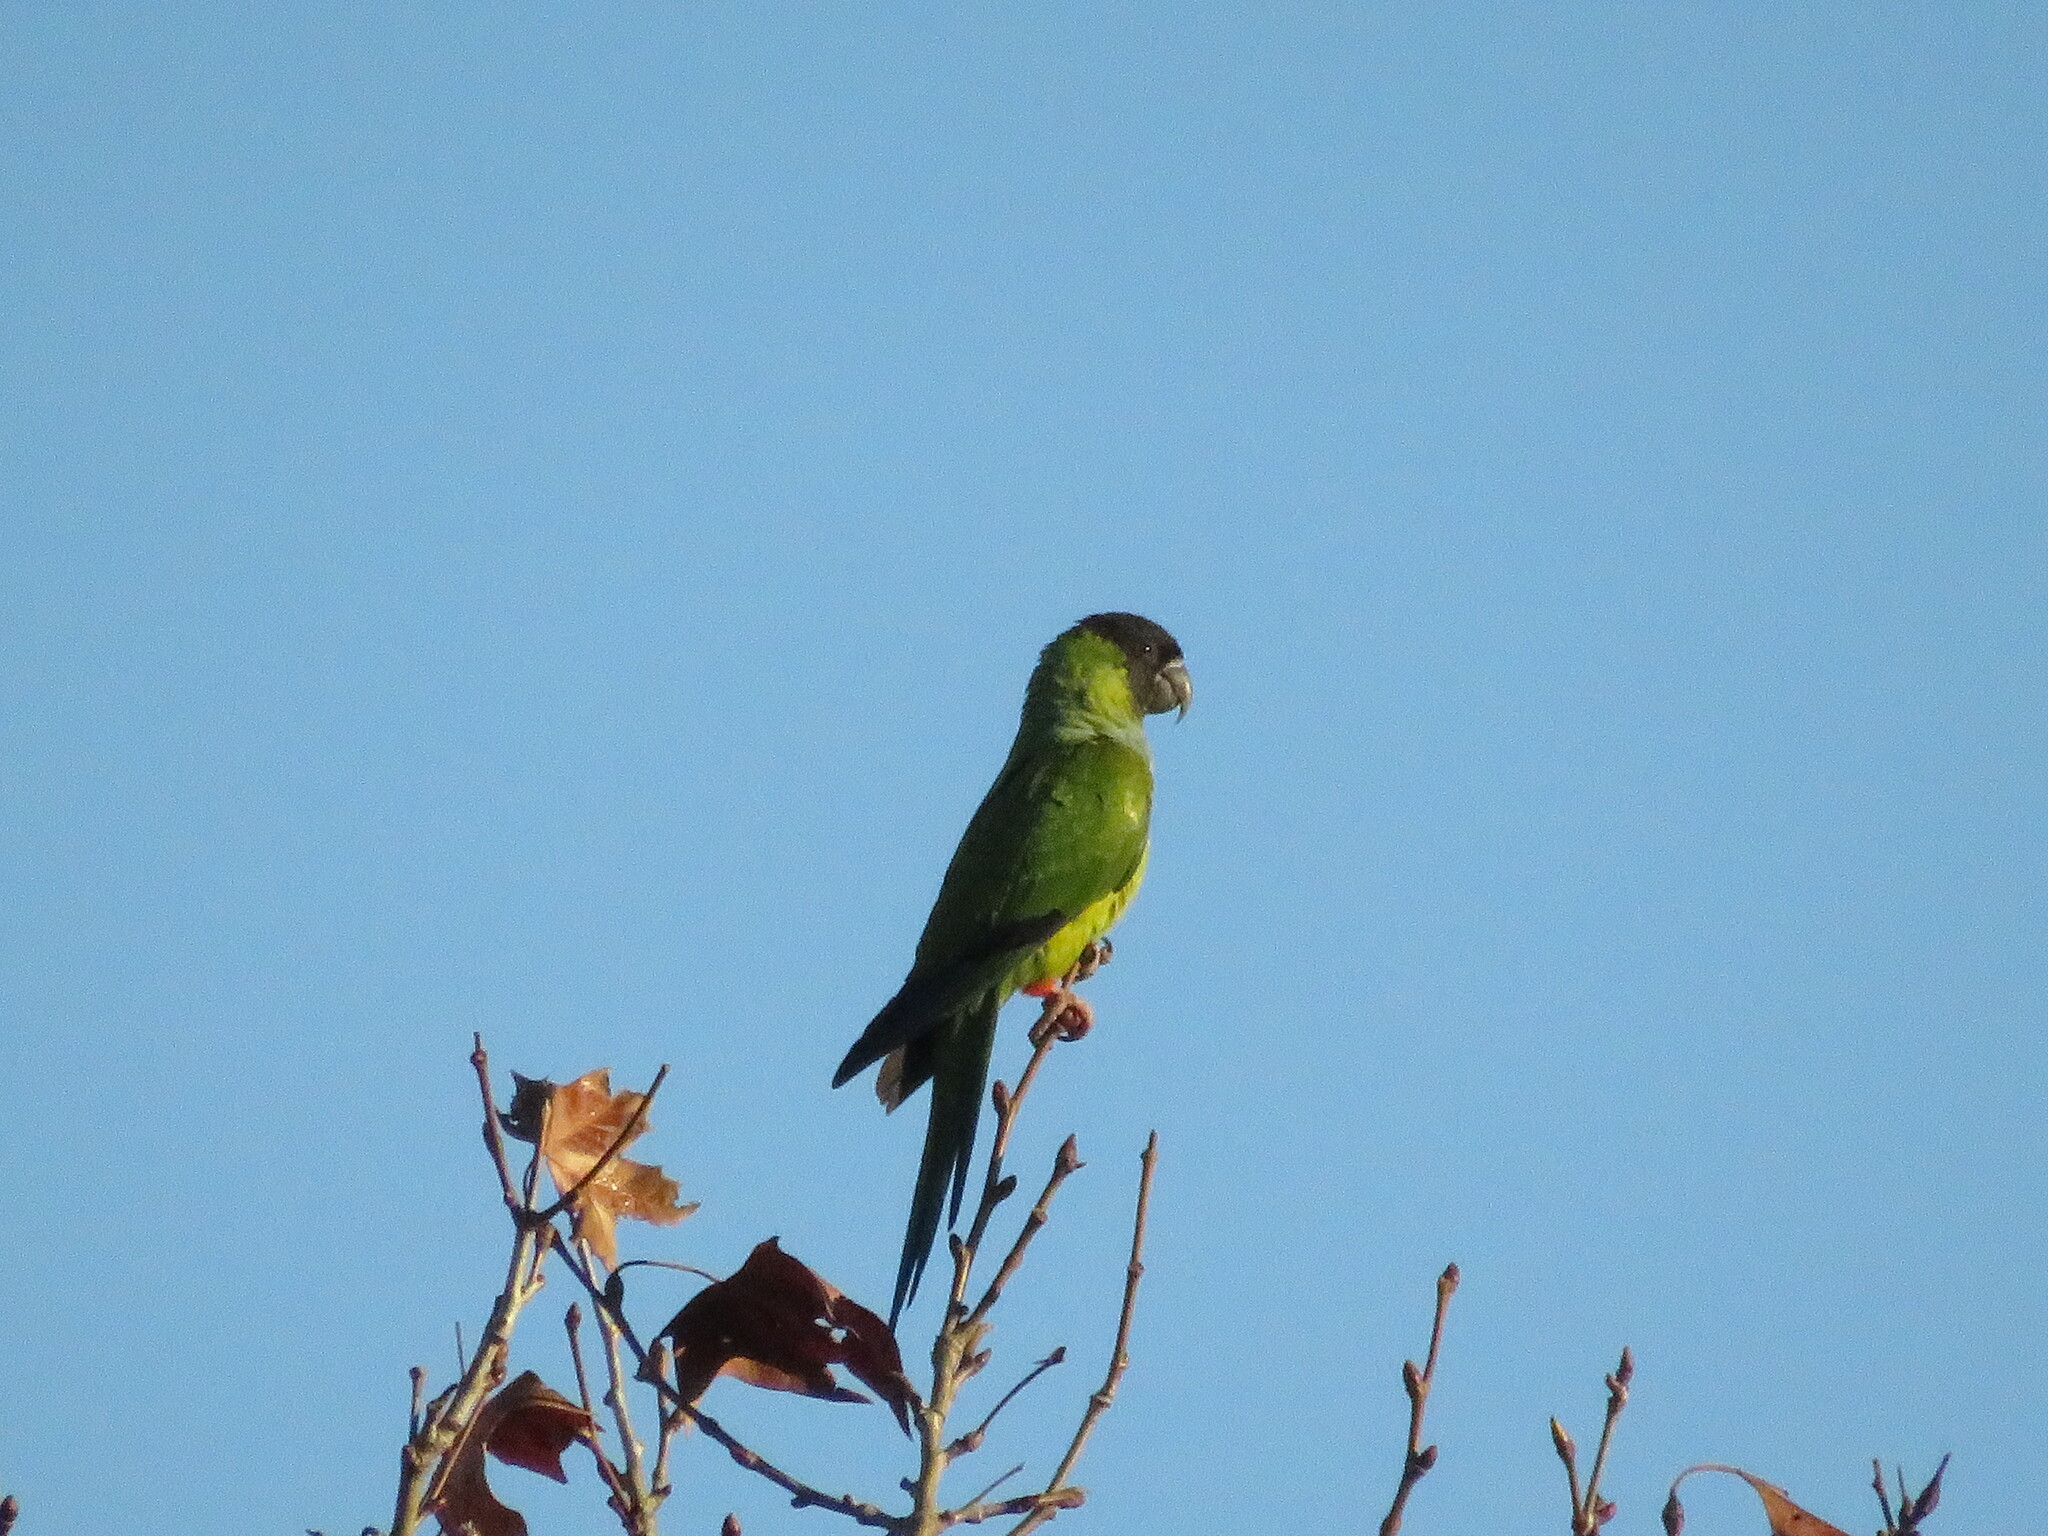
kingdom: Animalia
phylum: Chordata
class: Aves
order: Psittaciformes
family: Psittacidae
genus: Nandayus
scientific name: Nandayus nenday
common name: Nanday parakeet
